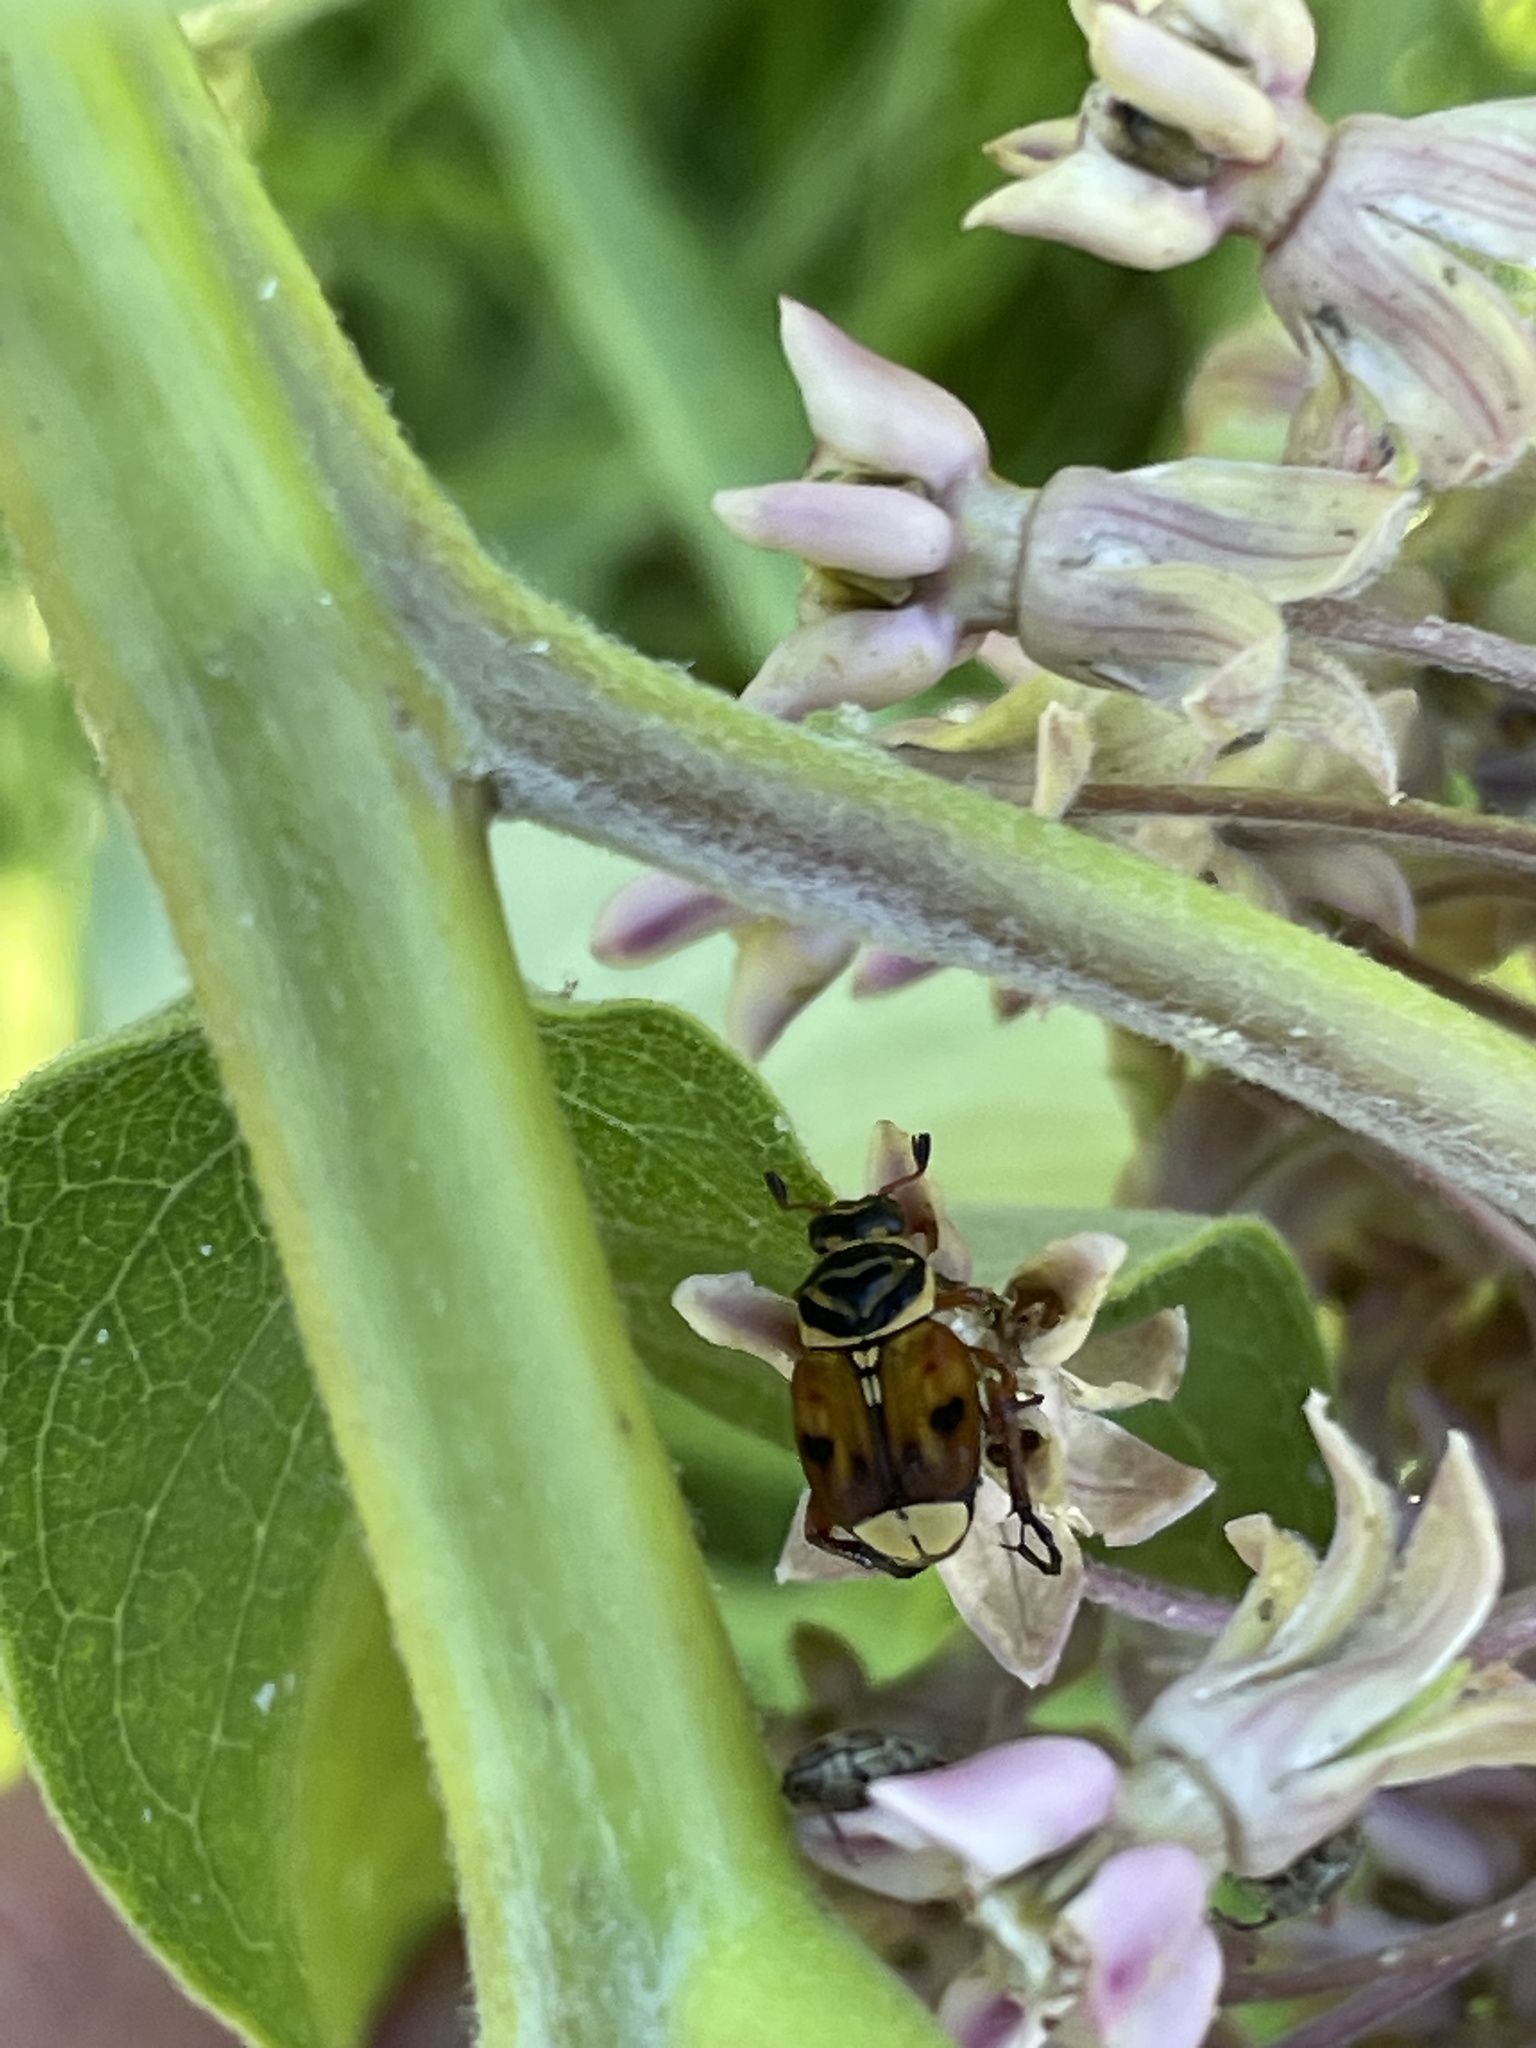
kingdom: Animalia
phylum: Arthropoda
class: Insecta
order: Coleoptera
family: Scarabaeidae
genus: Trigonopeltastes
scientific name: Trigonopeltastes delta
